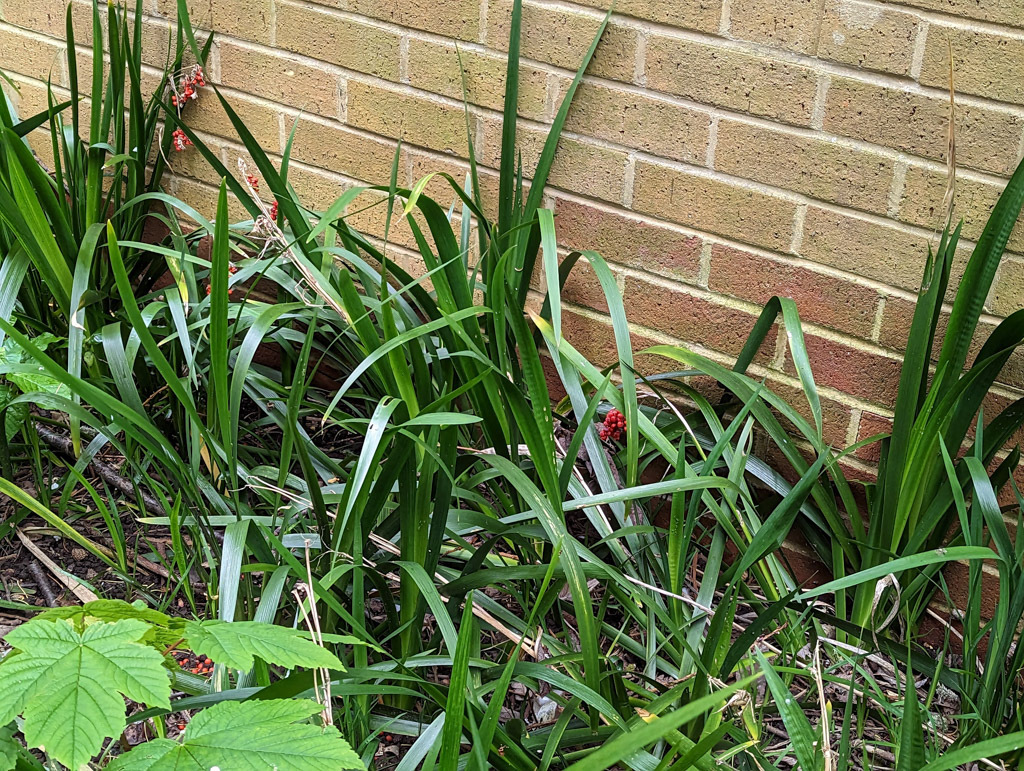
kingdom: Plantae
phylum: Tracheophyta
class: Liliopsida
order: Asparagales
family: Iridaceae
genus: Iris
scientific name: Iris foetidissima
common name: Stinking iris
